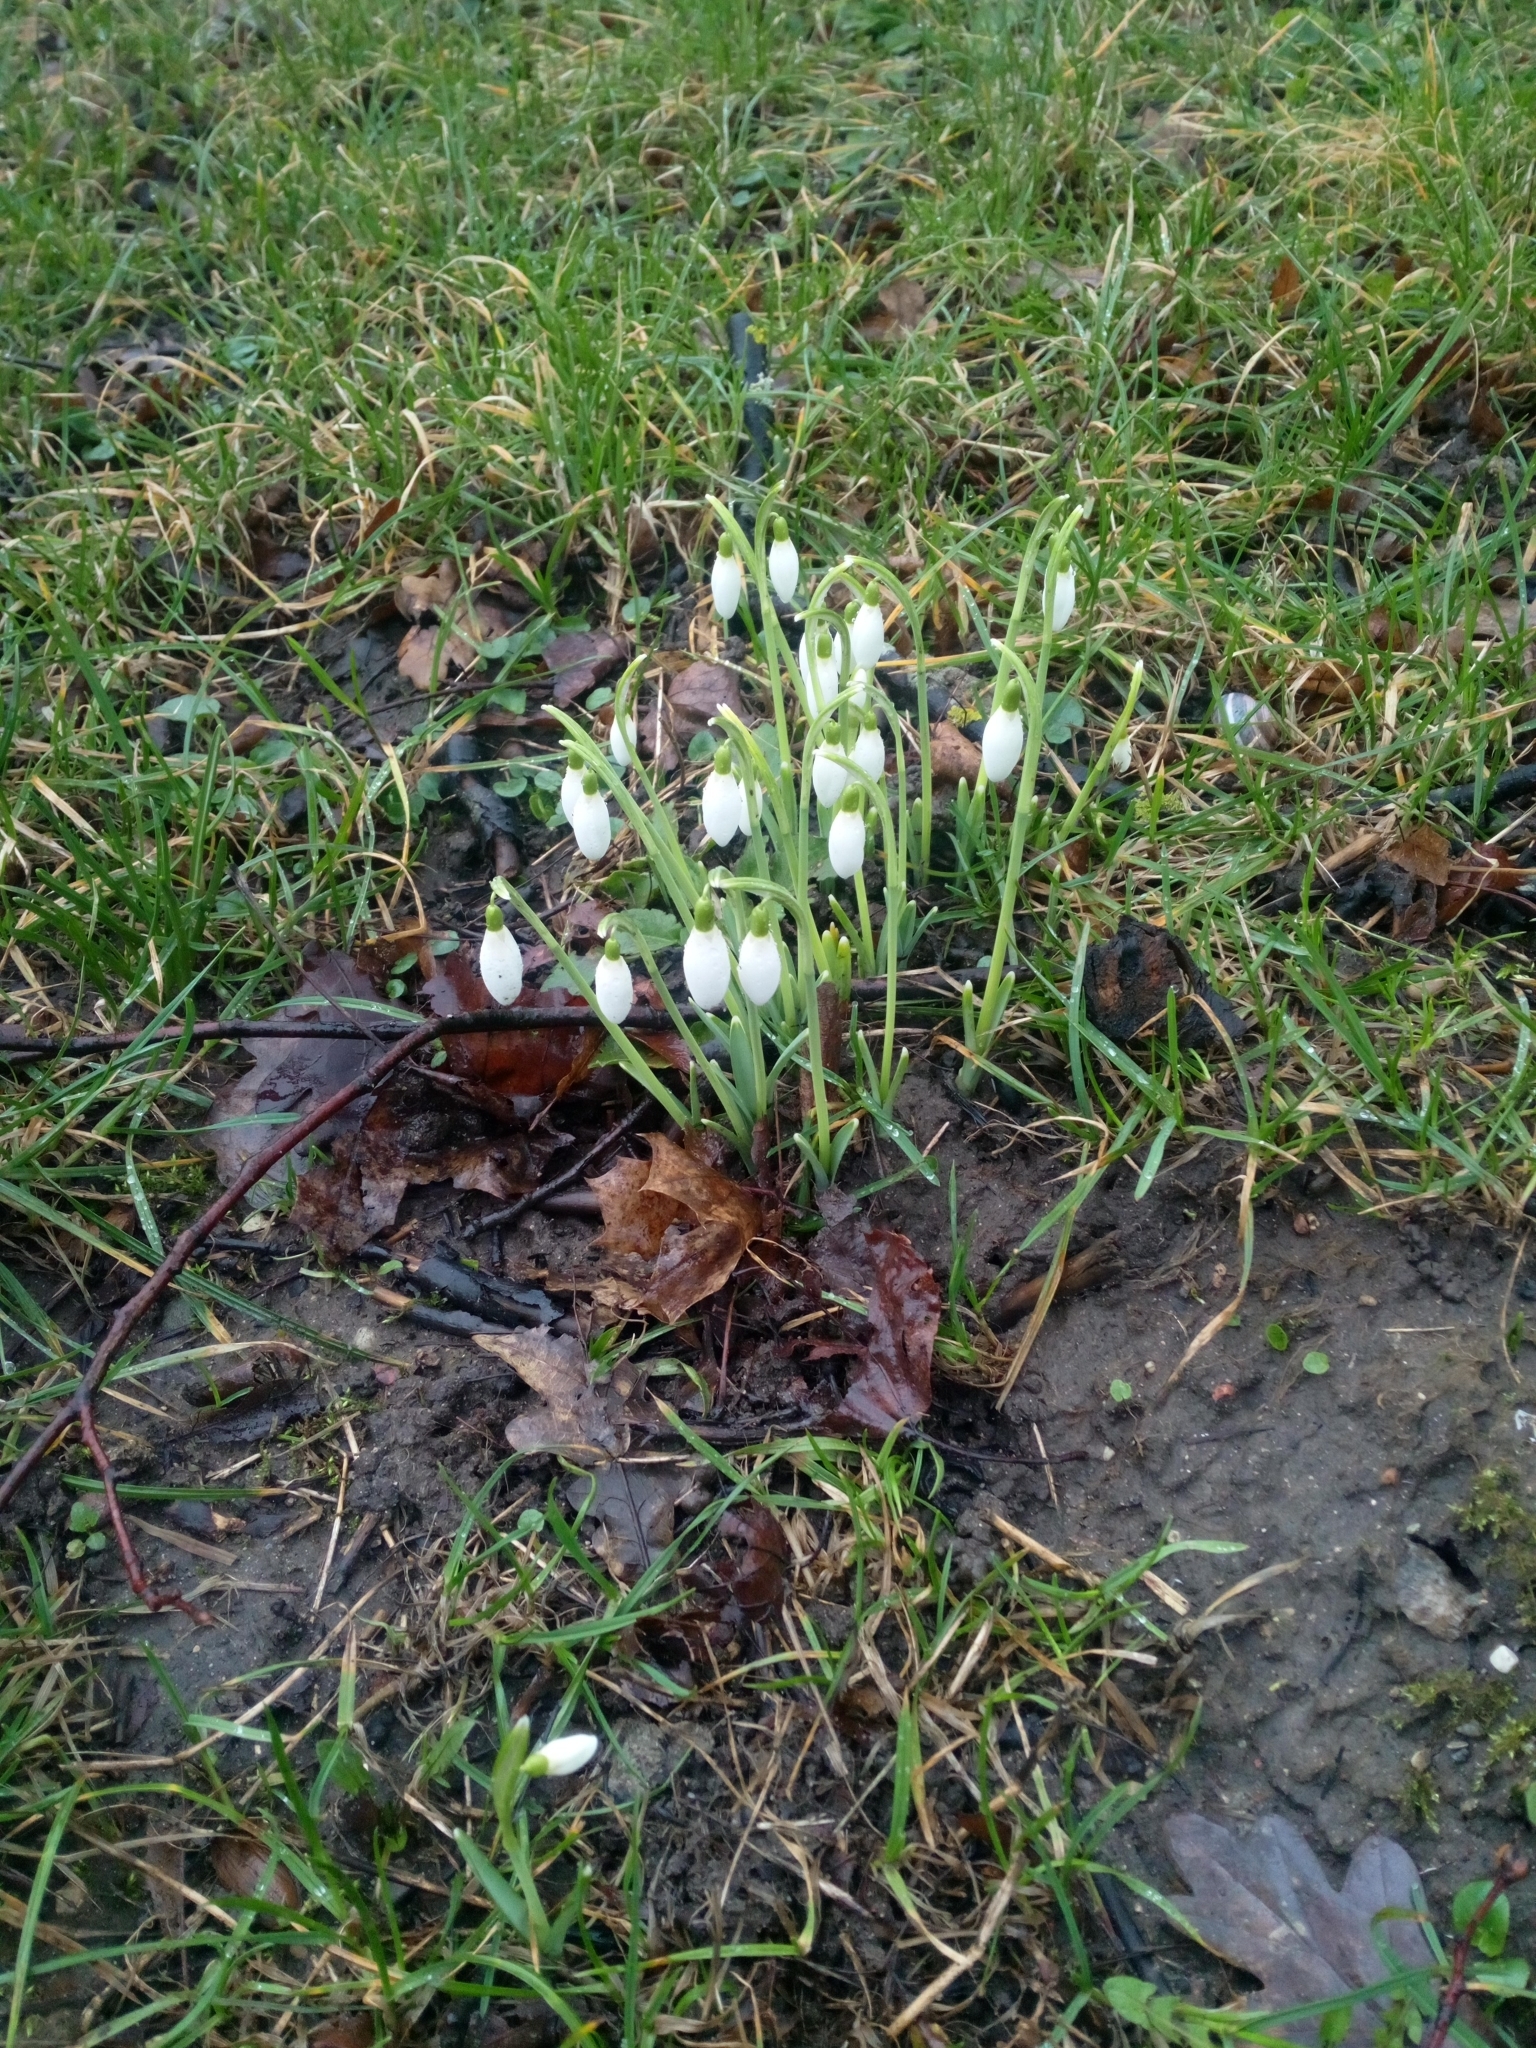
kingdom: Plantae
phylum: Tracheophyta
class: Liliopsida
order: Asparagales
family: Amaryllidaceae
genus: Galanthus
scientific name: Galanthus nivalis
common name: Snowdrop
